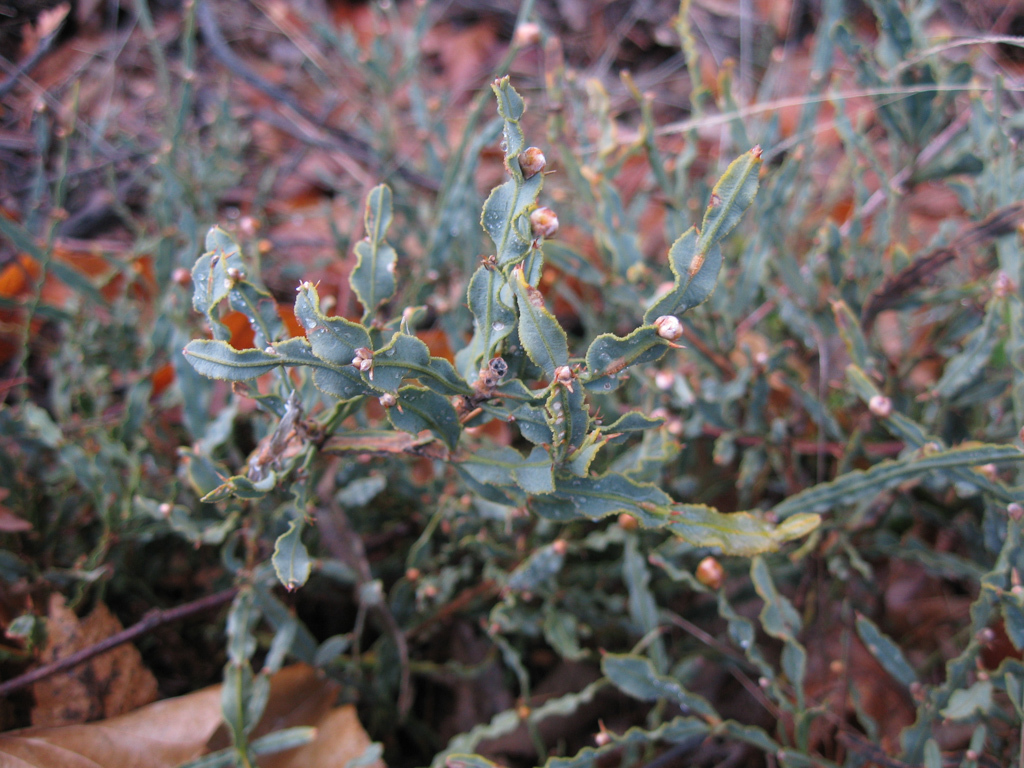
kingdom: Plantae
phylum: Tracheophyta
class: Magnoliopsida
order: Fabales
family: Fabaceae
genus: Genista
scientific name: Genista tridentata
